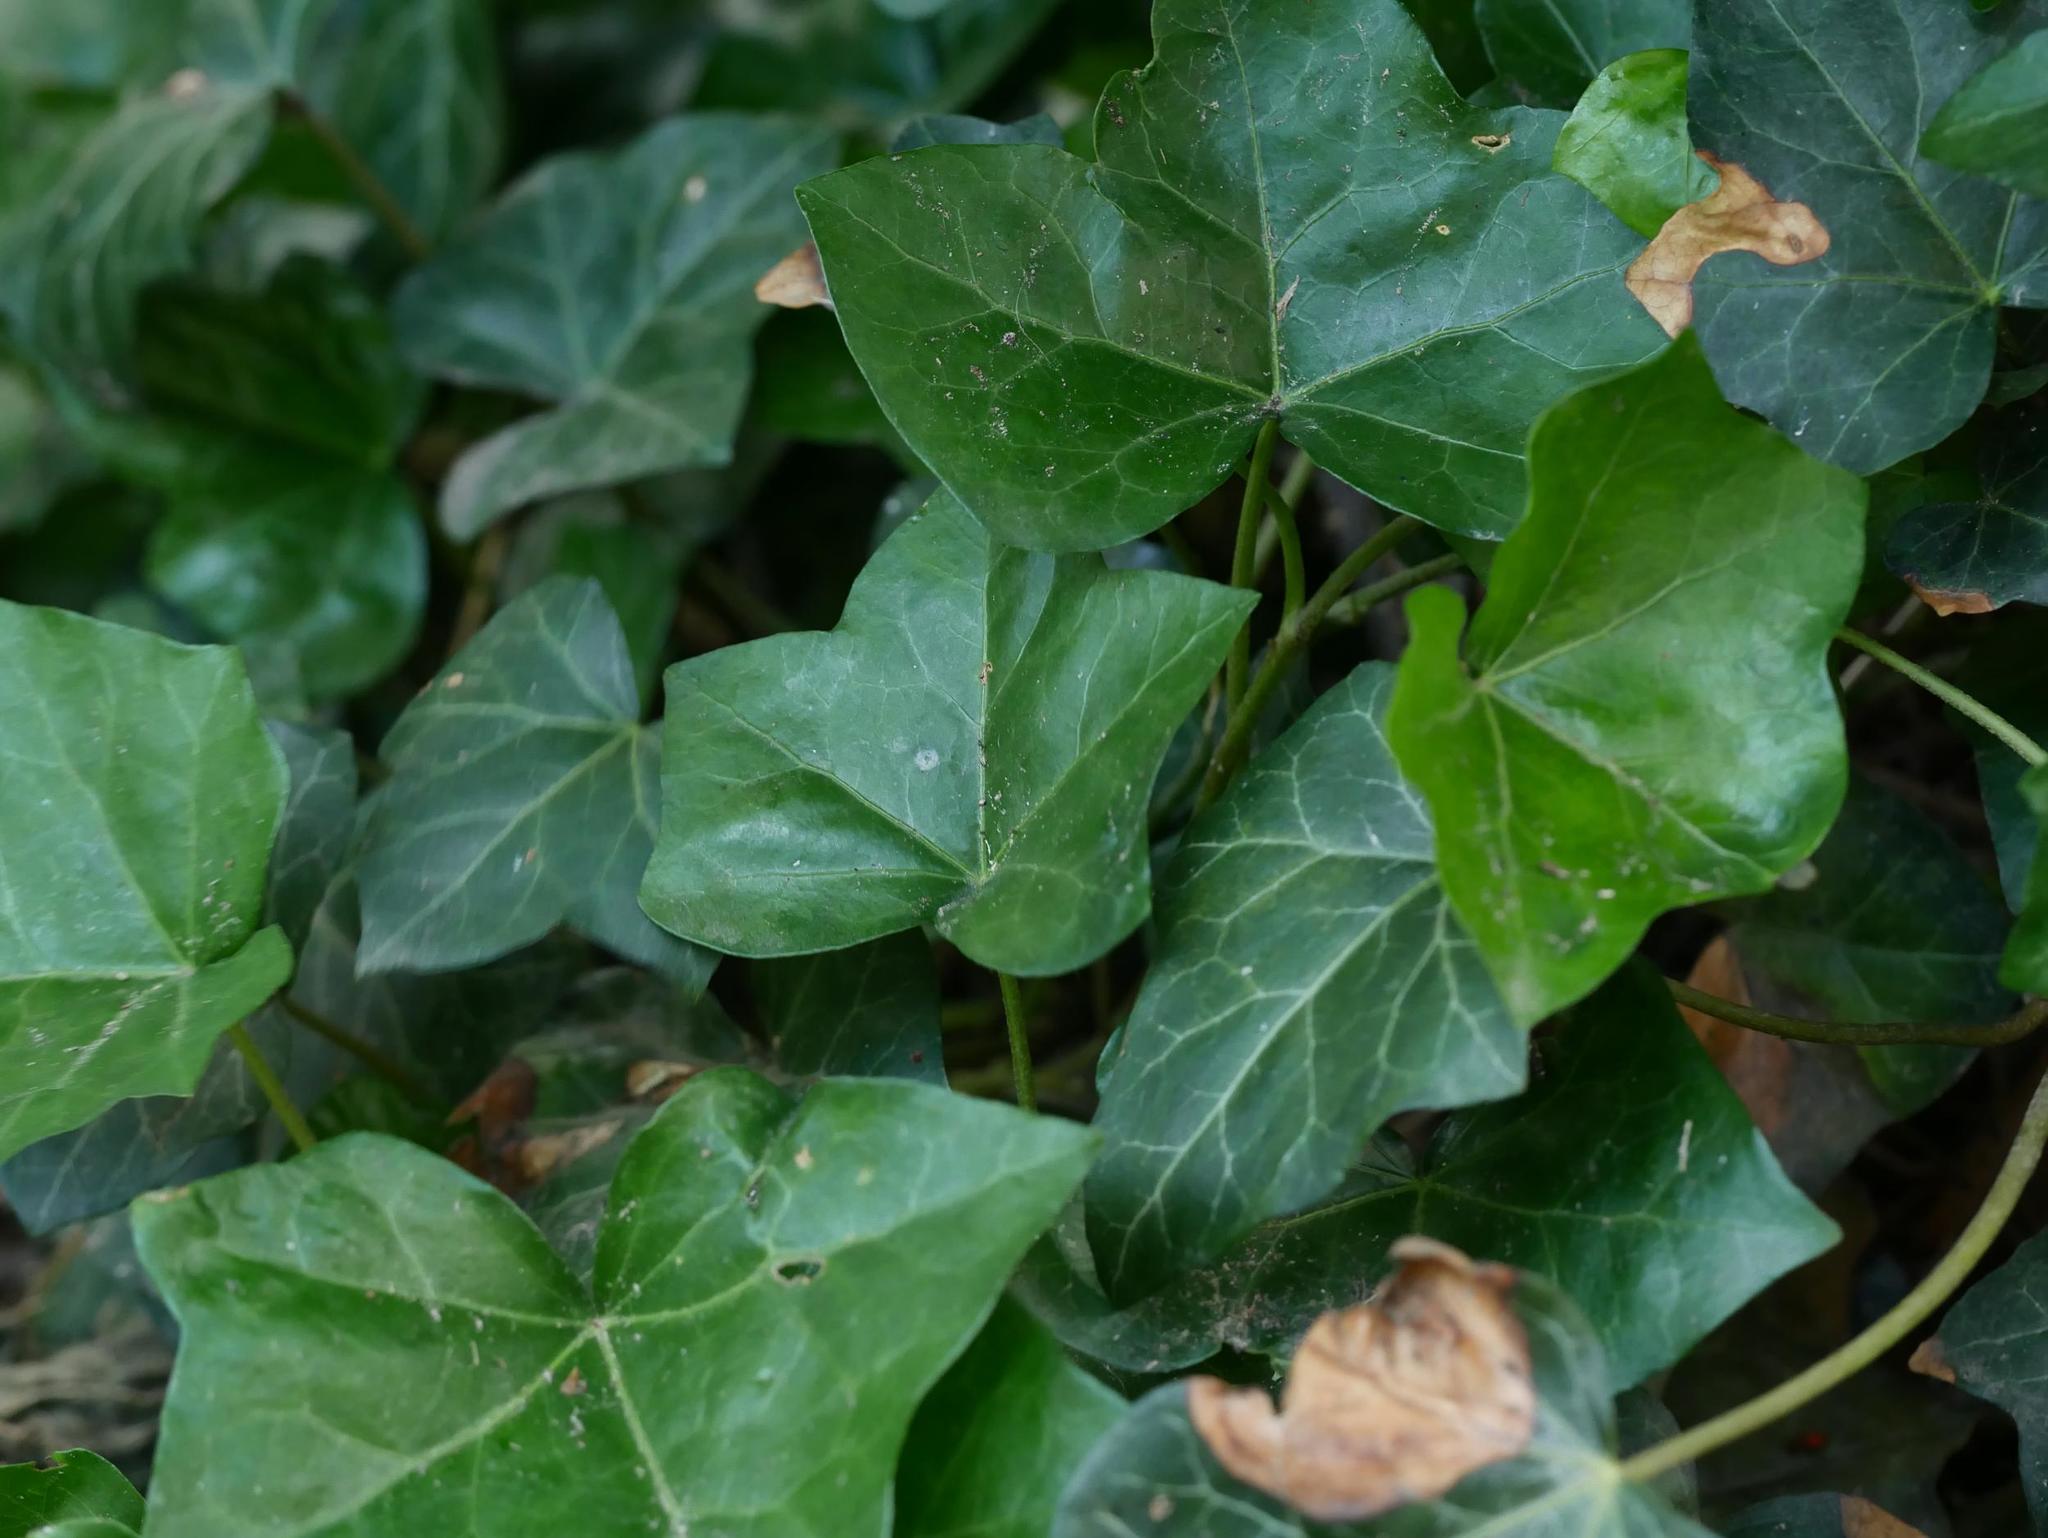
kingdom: Plantae
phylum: Tracheophyta
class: Magnoliopsida
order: Apiales
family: Araliaceae
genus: Hedera
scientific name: Hedera helix
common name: Ivy
